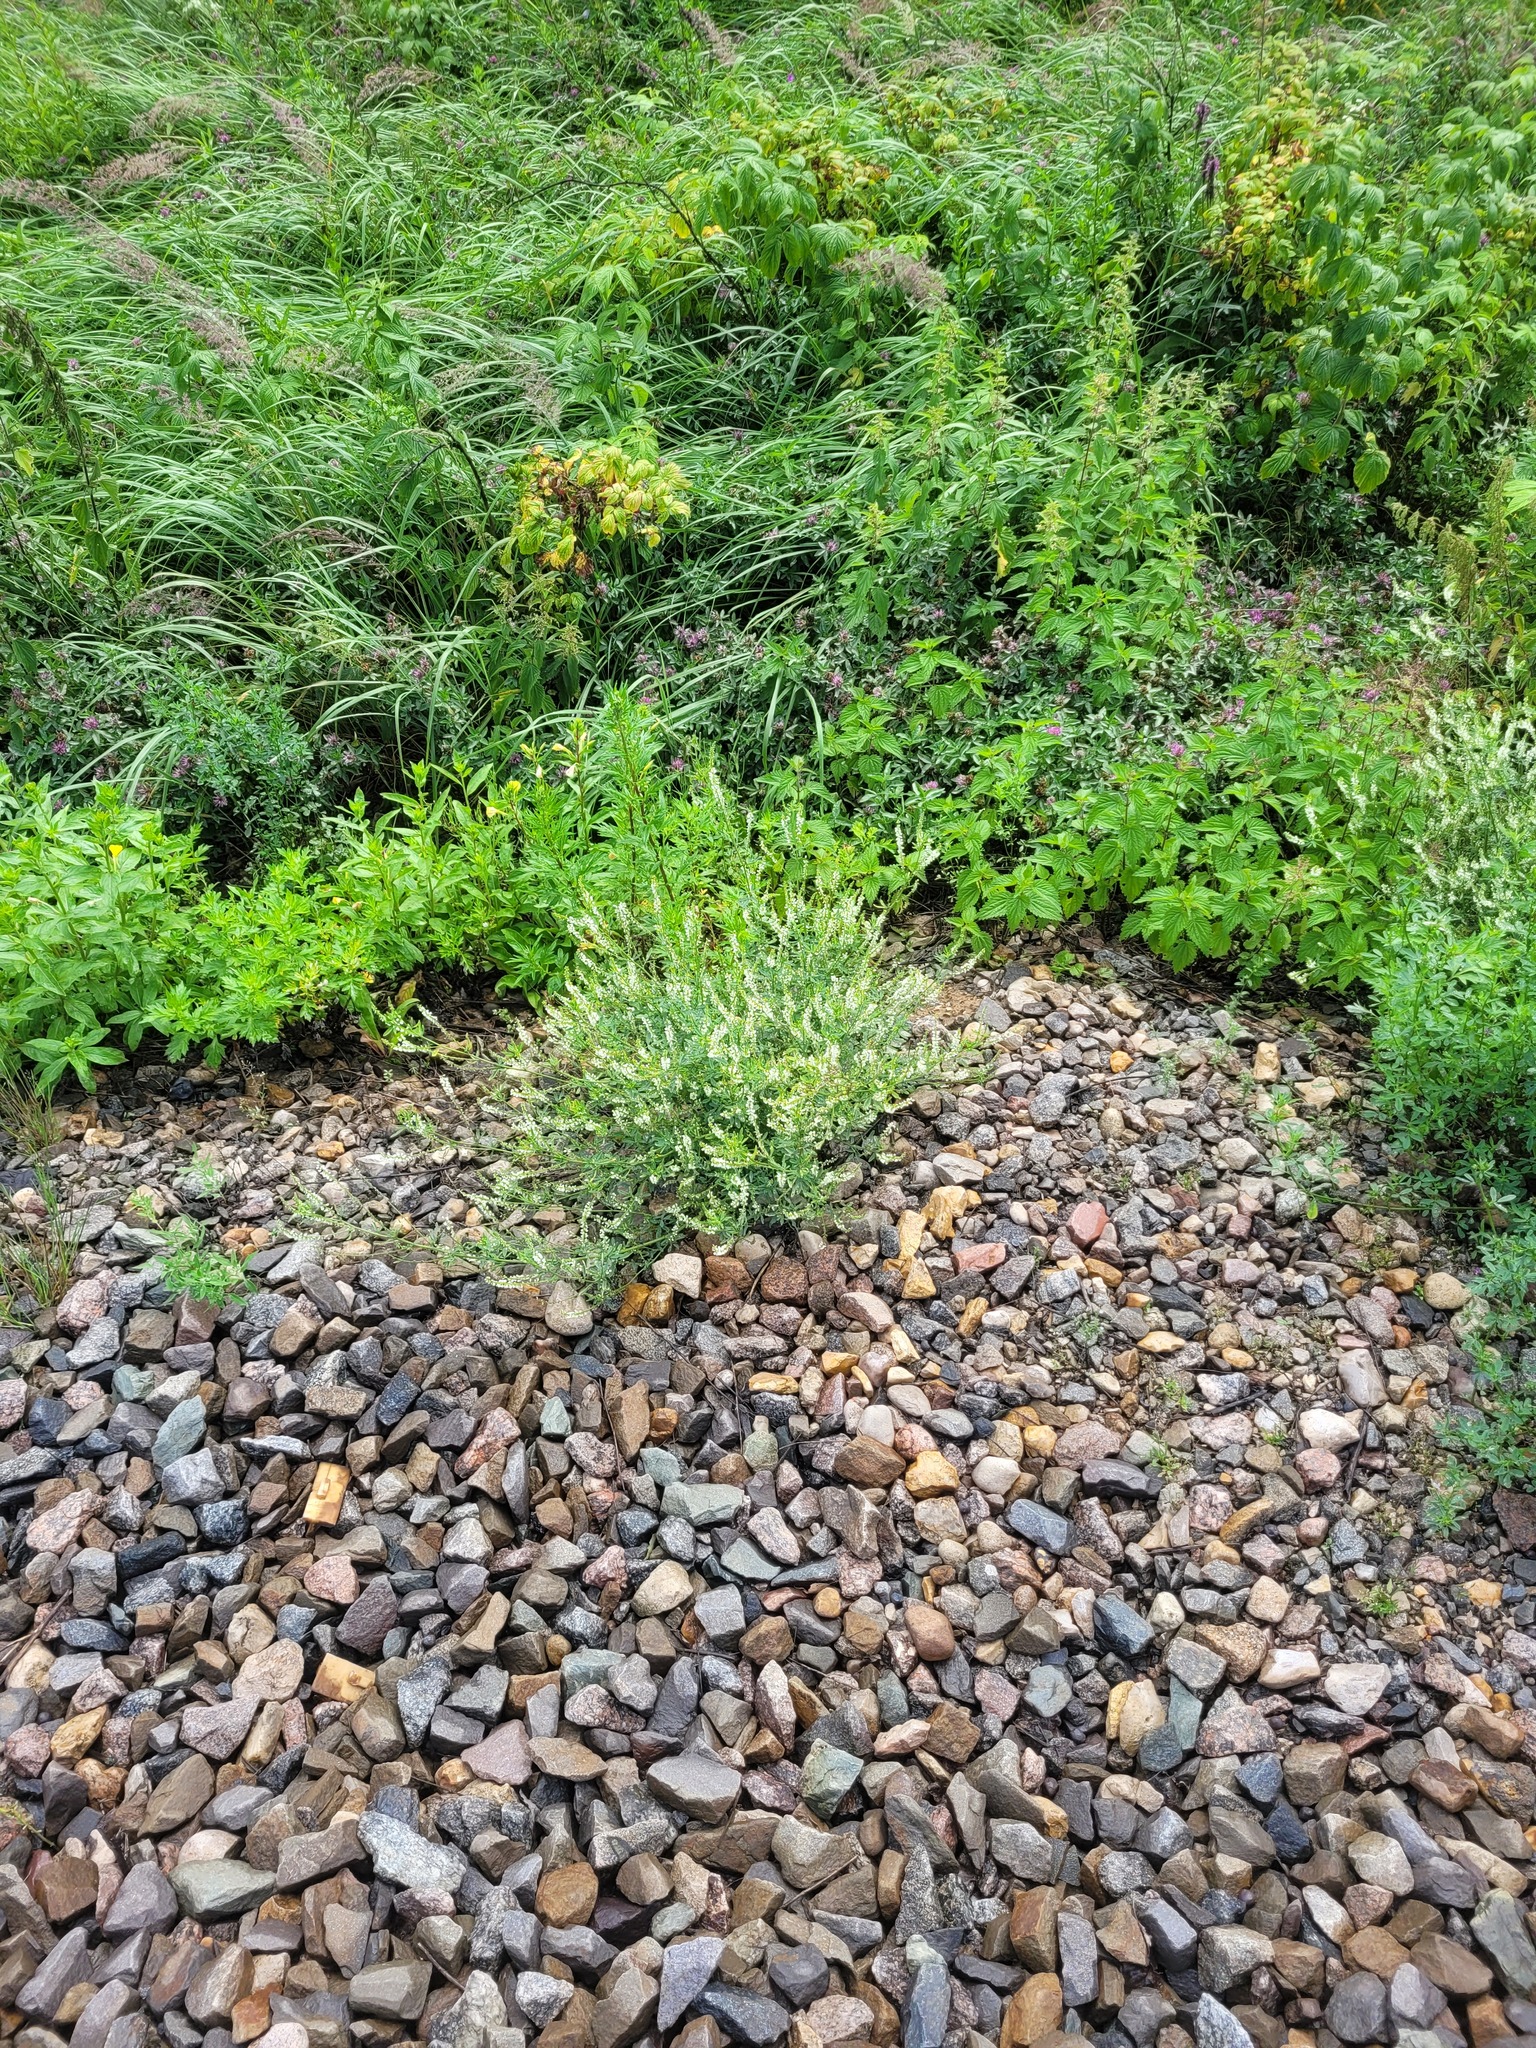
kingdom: Plantae
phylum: Tracheophyta
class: Magnoliopsida
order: Fabales
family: Fabaceae
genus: Melilotus
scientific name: Melilotus albus
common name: White melilot
